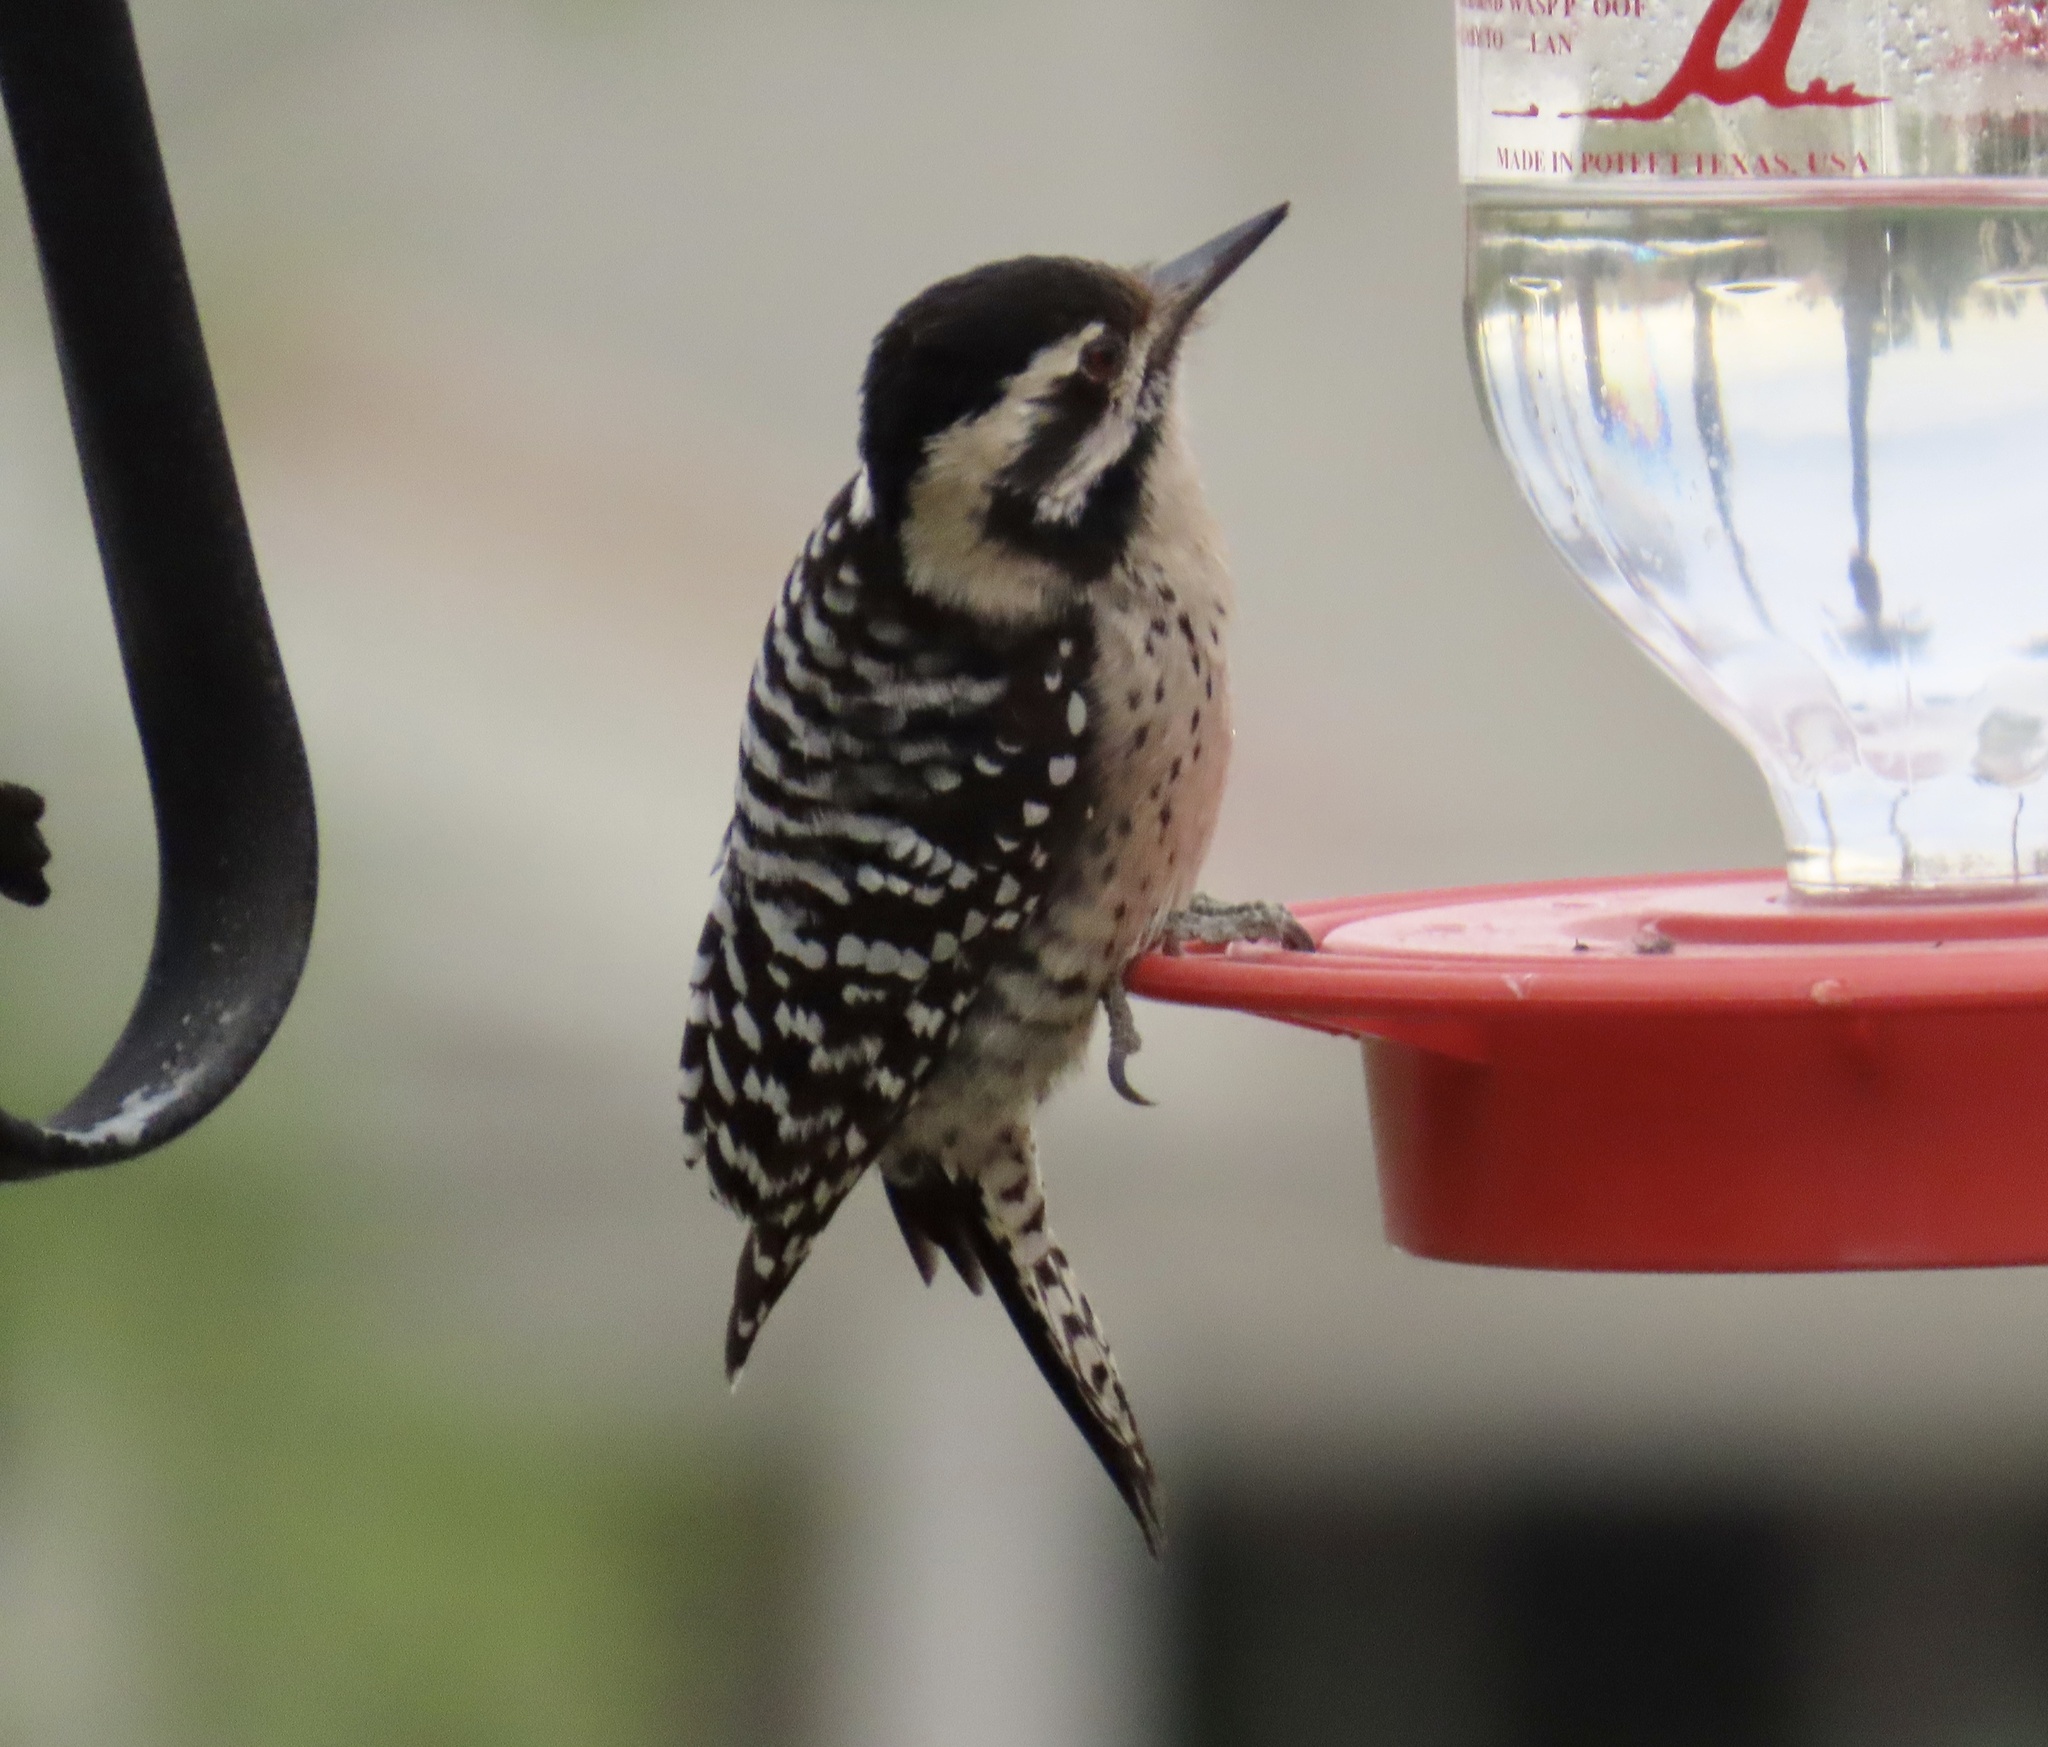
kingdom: Animalia
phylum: Chordata
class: Aves
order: Piciformes
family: Picidae
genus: Dryobates
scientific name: Dryobates scalaris
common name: Ladder-backed woodpecker
